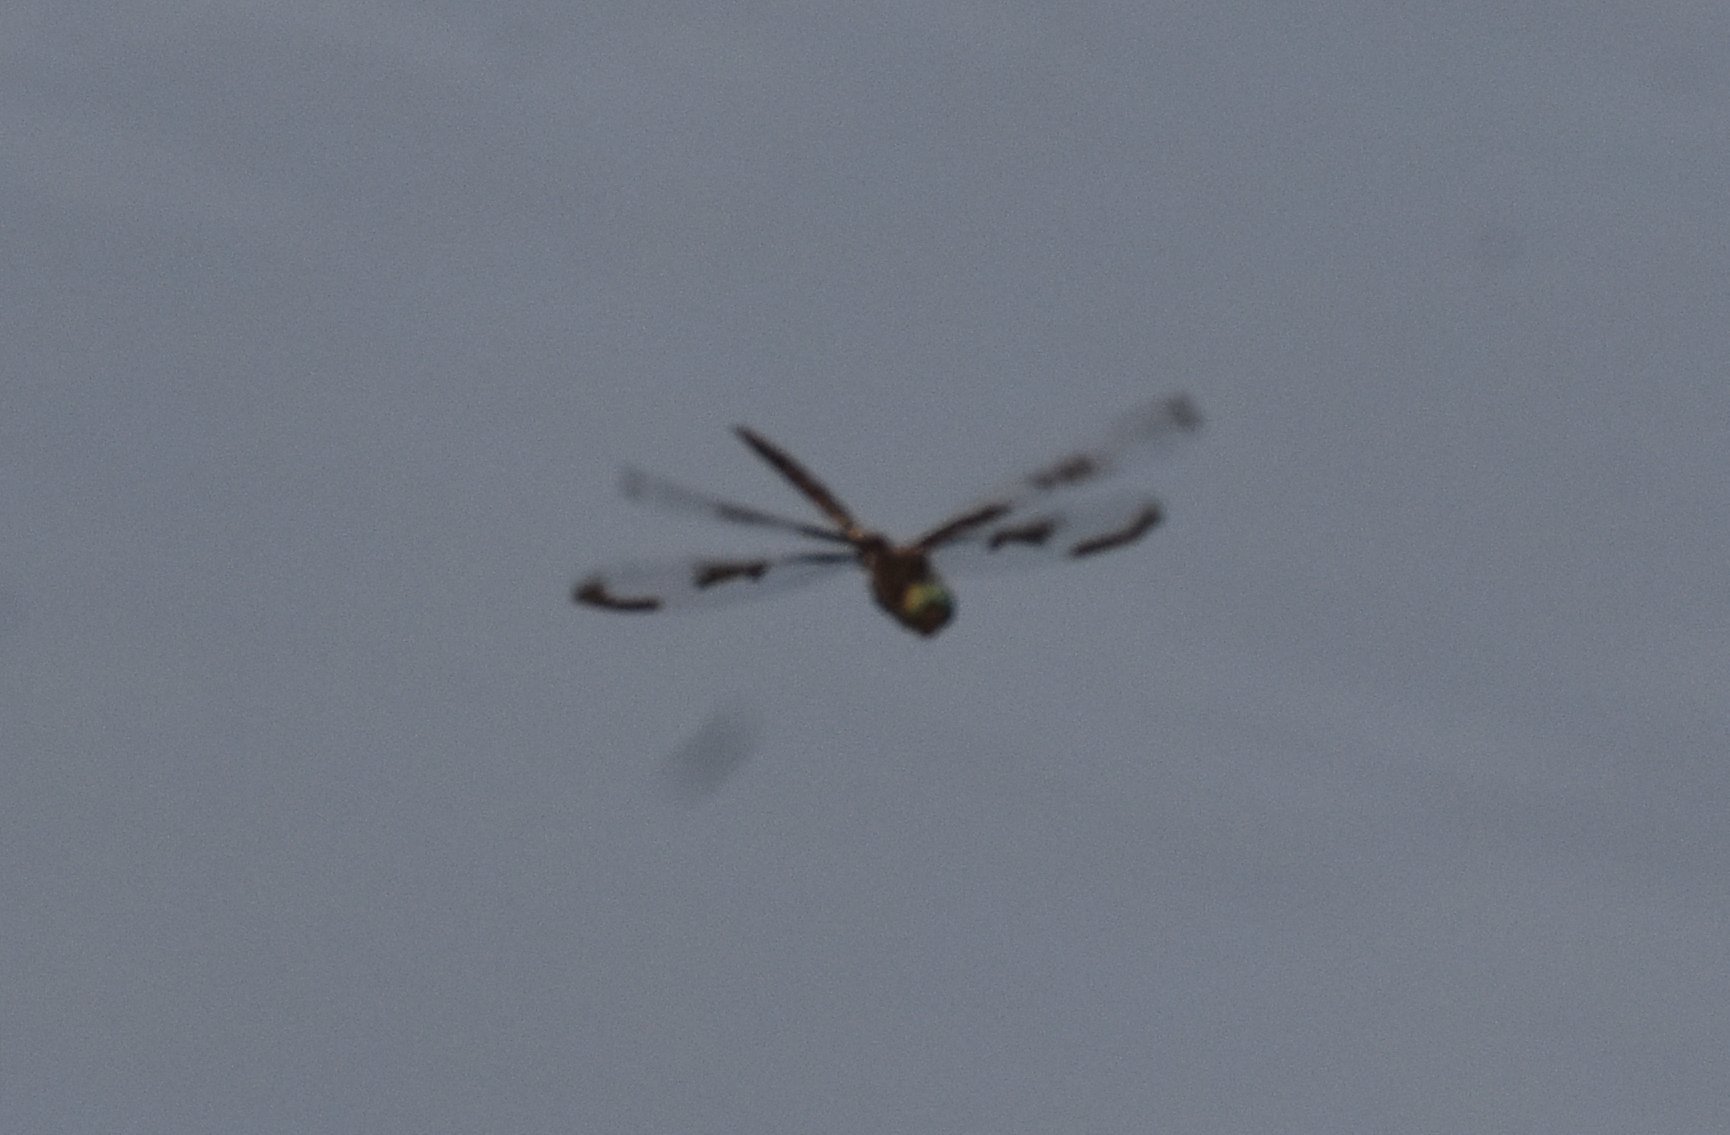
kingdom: Animalia
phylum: Arthropoda
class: Insecta
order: Odonata
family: Corduliidae
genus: Epitheca
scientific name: Epitheca princeps
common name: Prince baskettail
